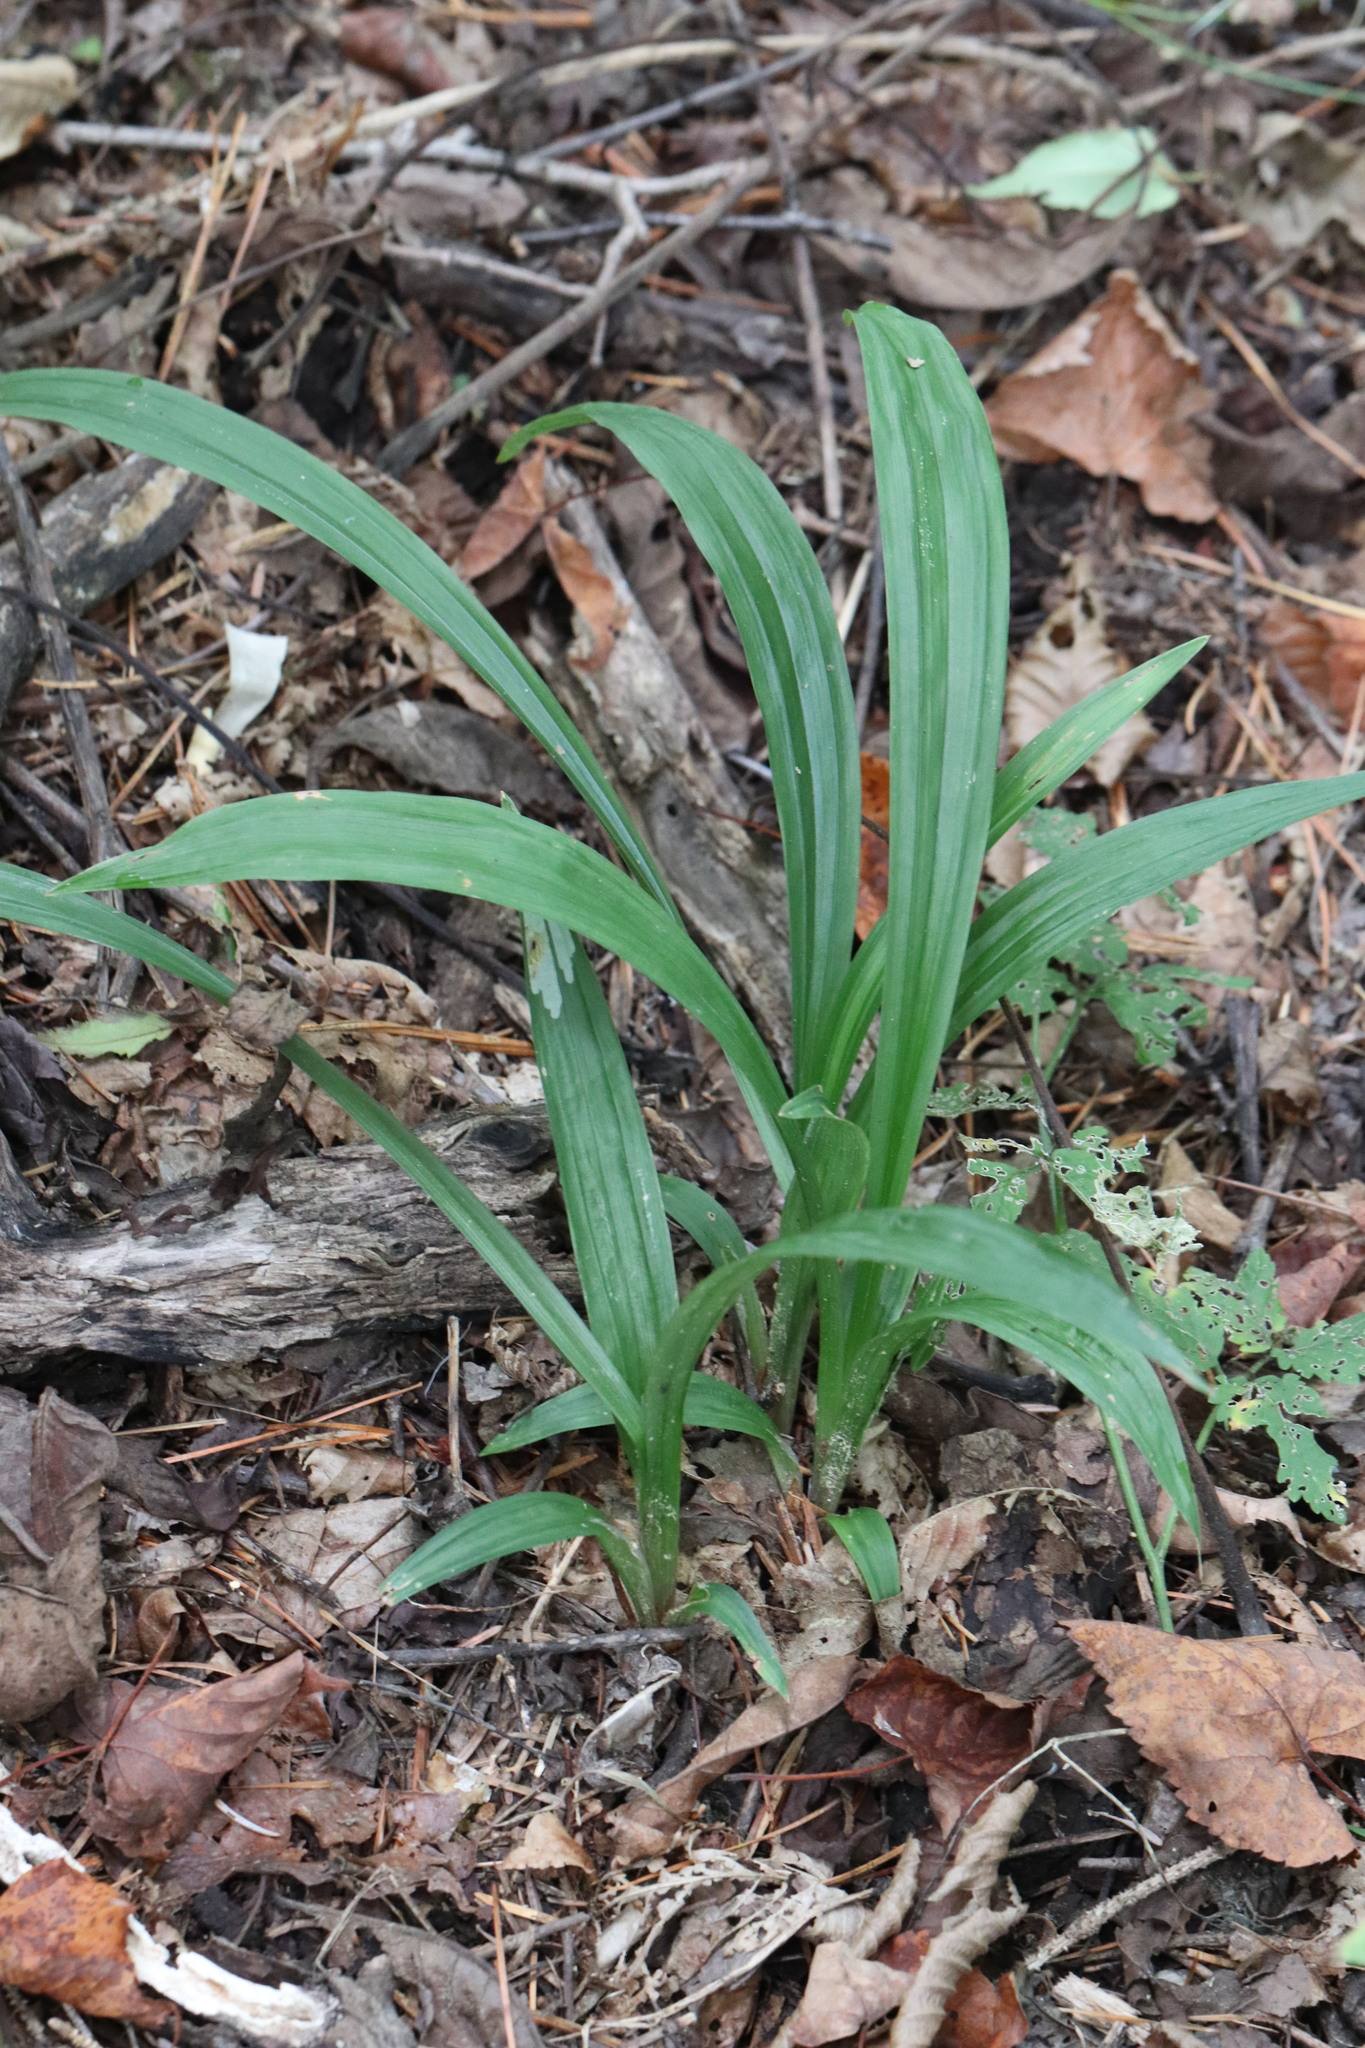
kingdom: Plantae
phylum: Tracheophyta
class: Liliopsida
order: Poales
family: Cyperaceae
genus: Carex
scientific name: Carex siderosticta
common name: Broadleaf sedge
